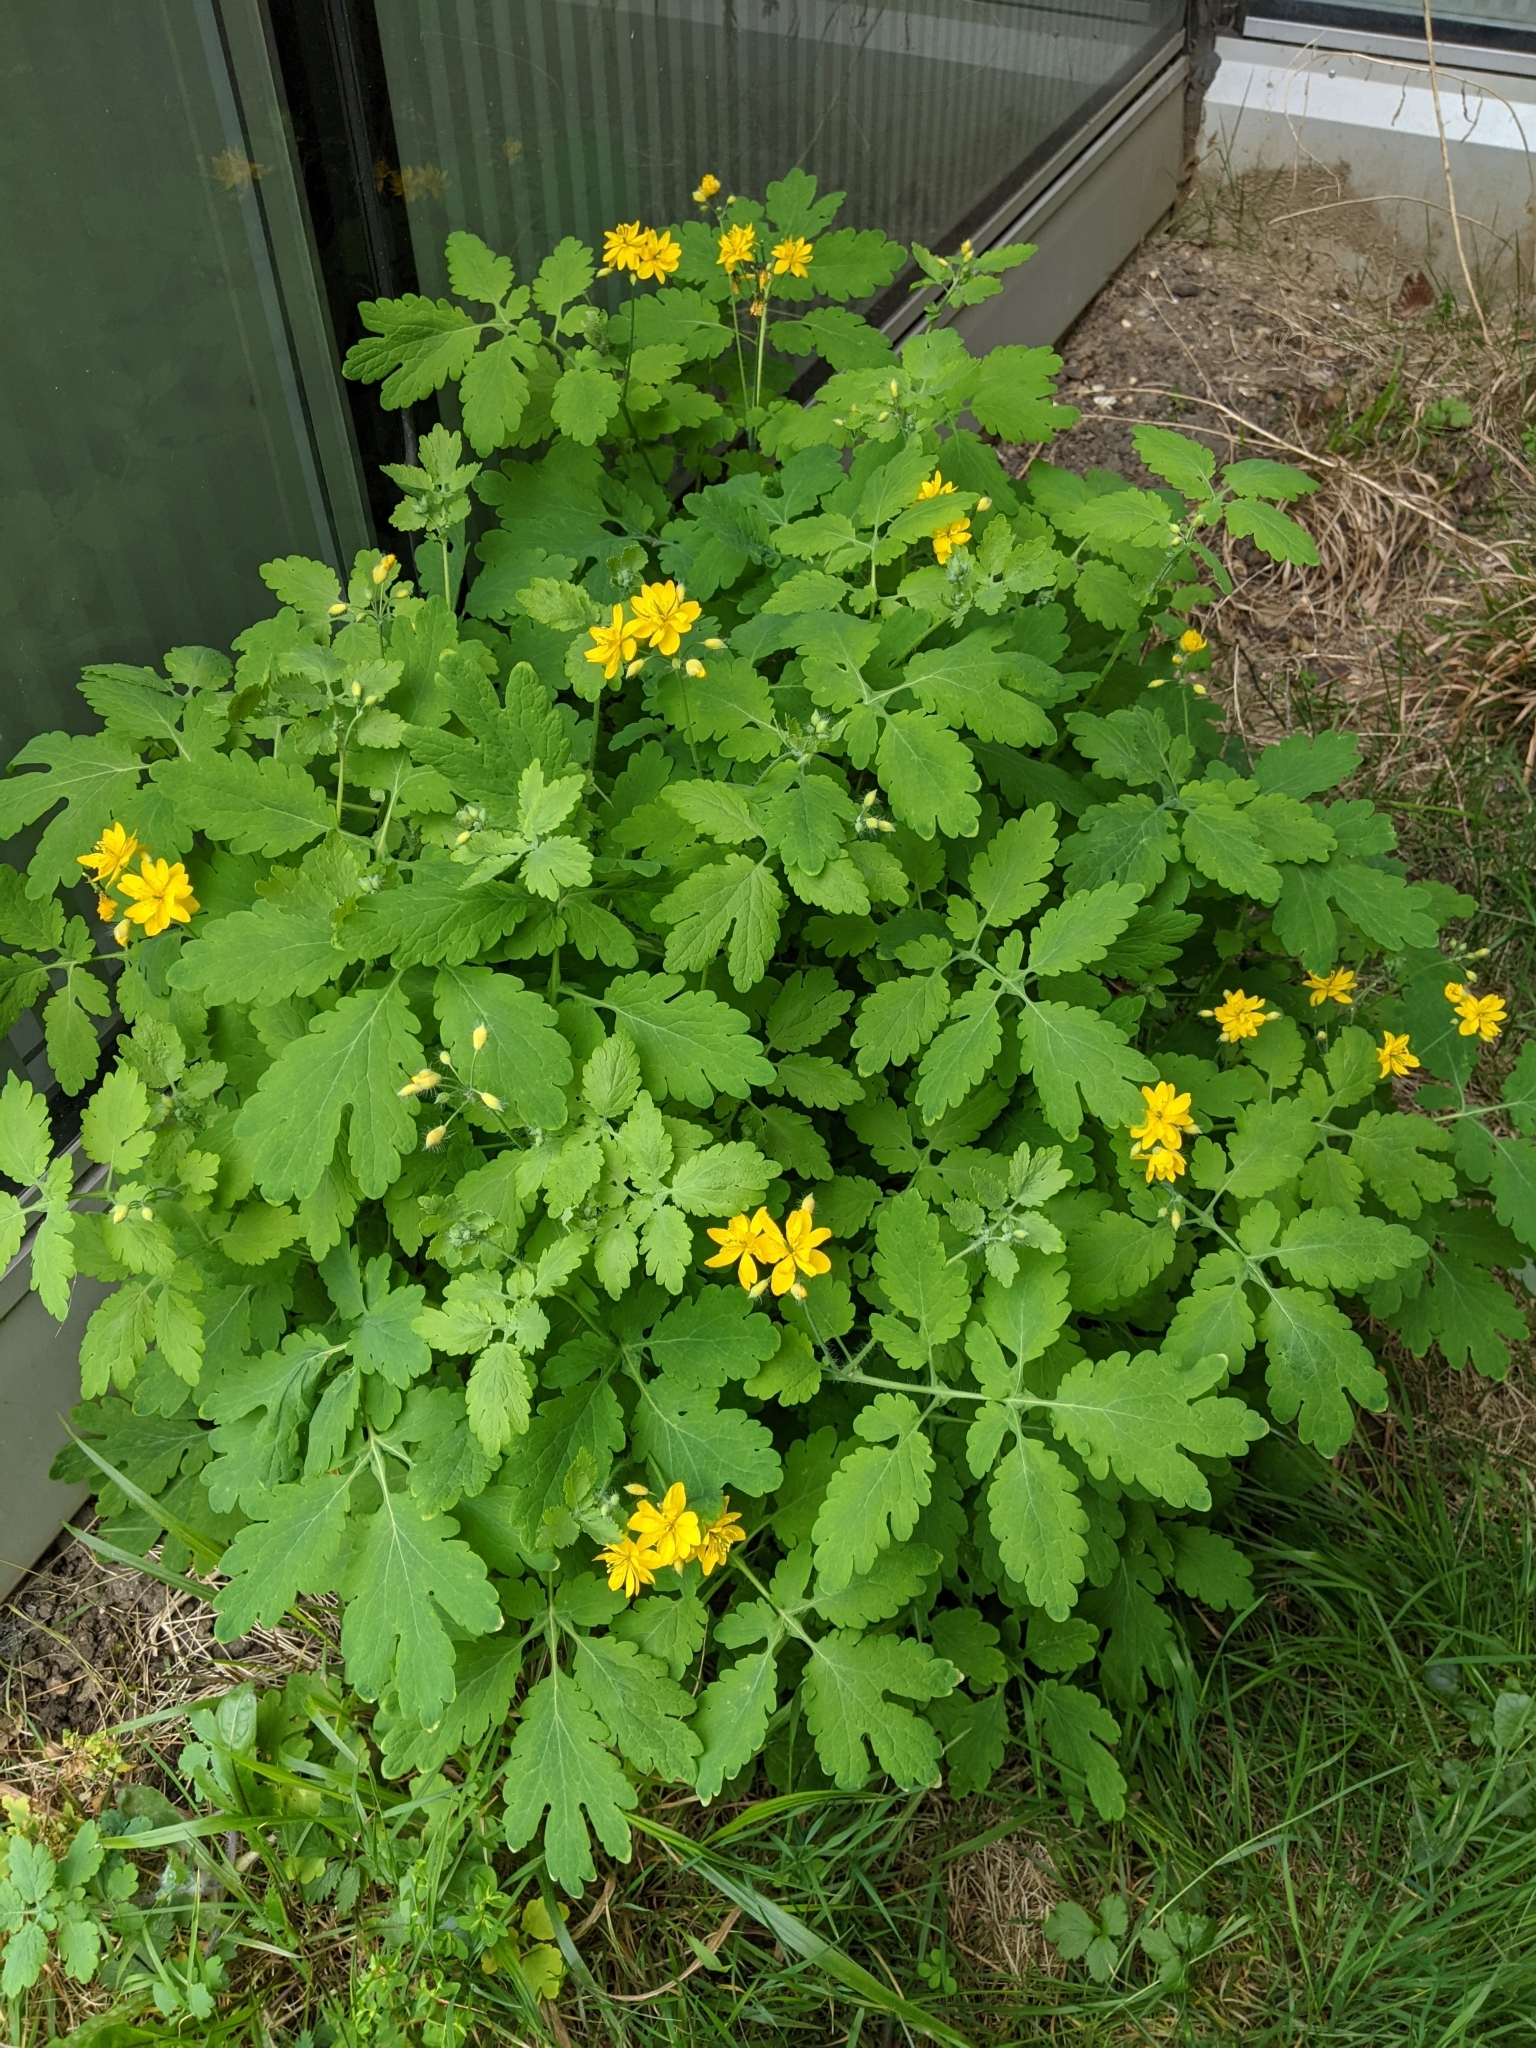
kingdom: Plantae
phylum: Tracheophyta
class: Magnoliopsida
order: Ranunculales
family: Papaveraceae
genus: Chelidonium
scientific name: Chelidonium majus
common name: Greater celandine
